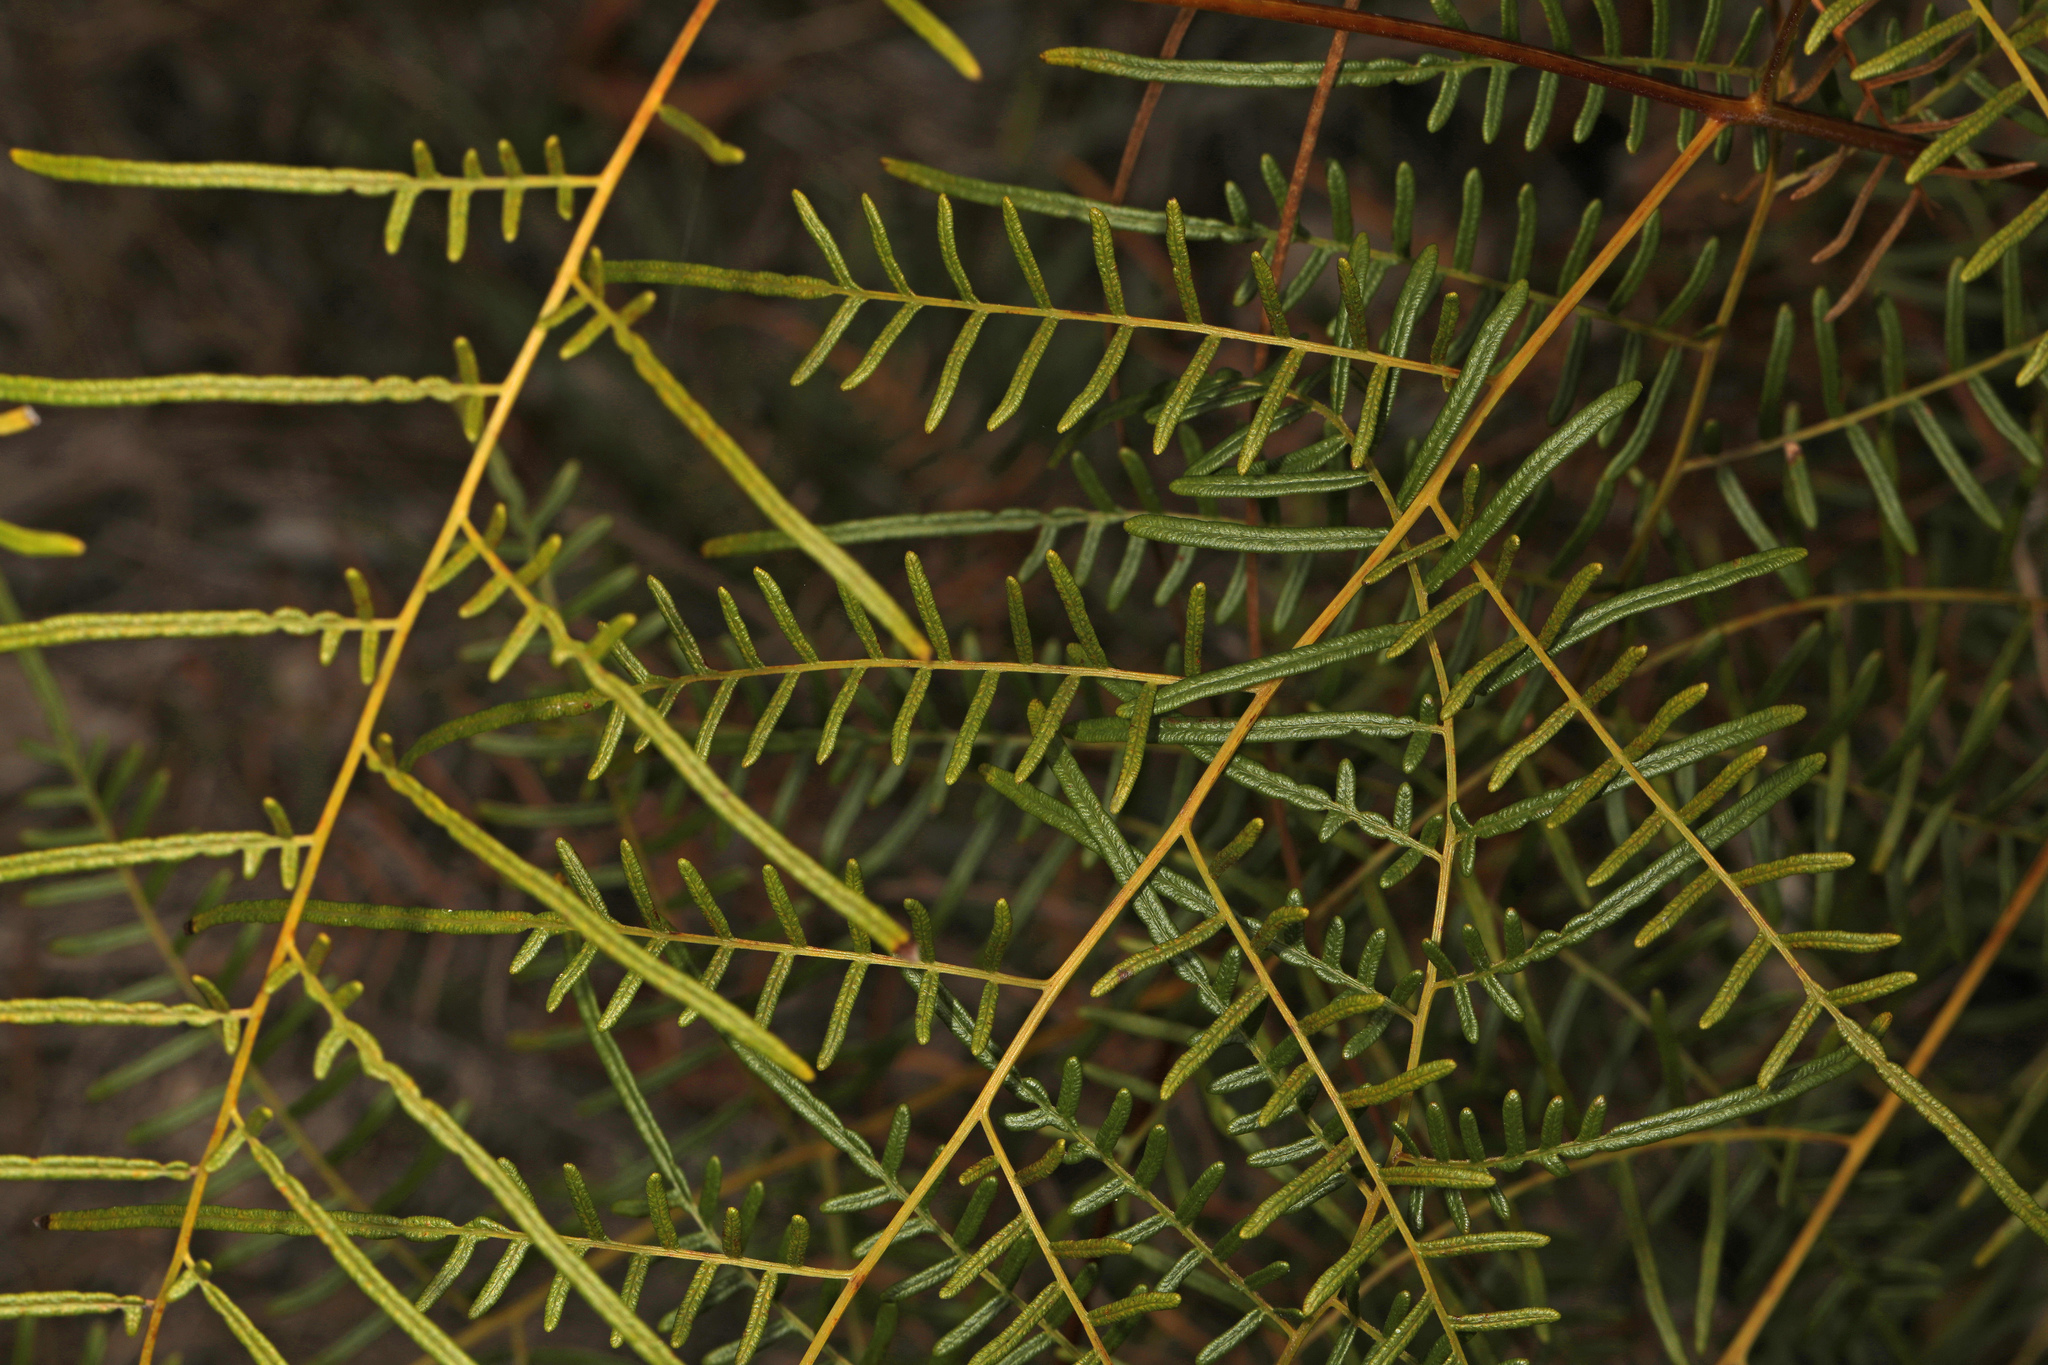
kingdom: Plantae
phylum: Tracheophyta
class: Polypodiopsida
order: Polypodiales
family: Dennstaedtiaceae
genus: Pteridium
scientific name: Pteridium caudatum
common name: Southern bracken fern
